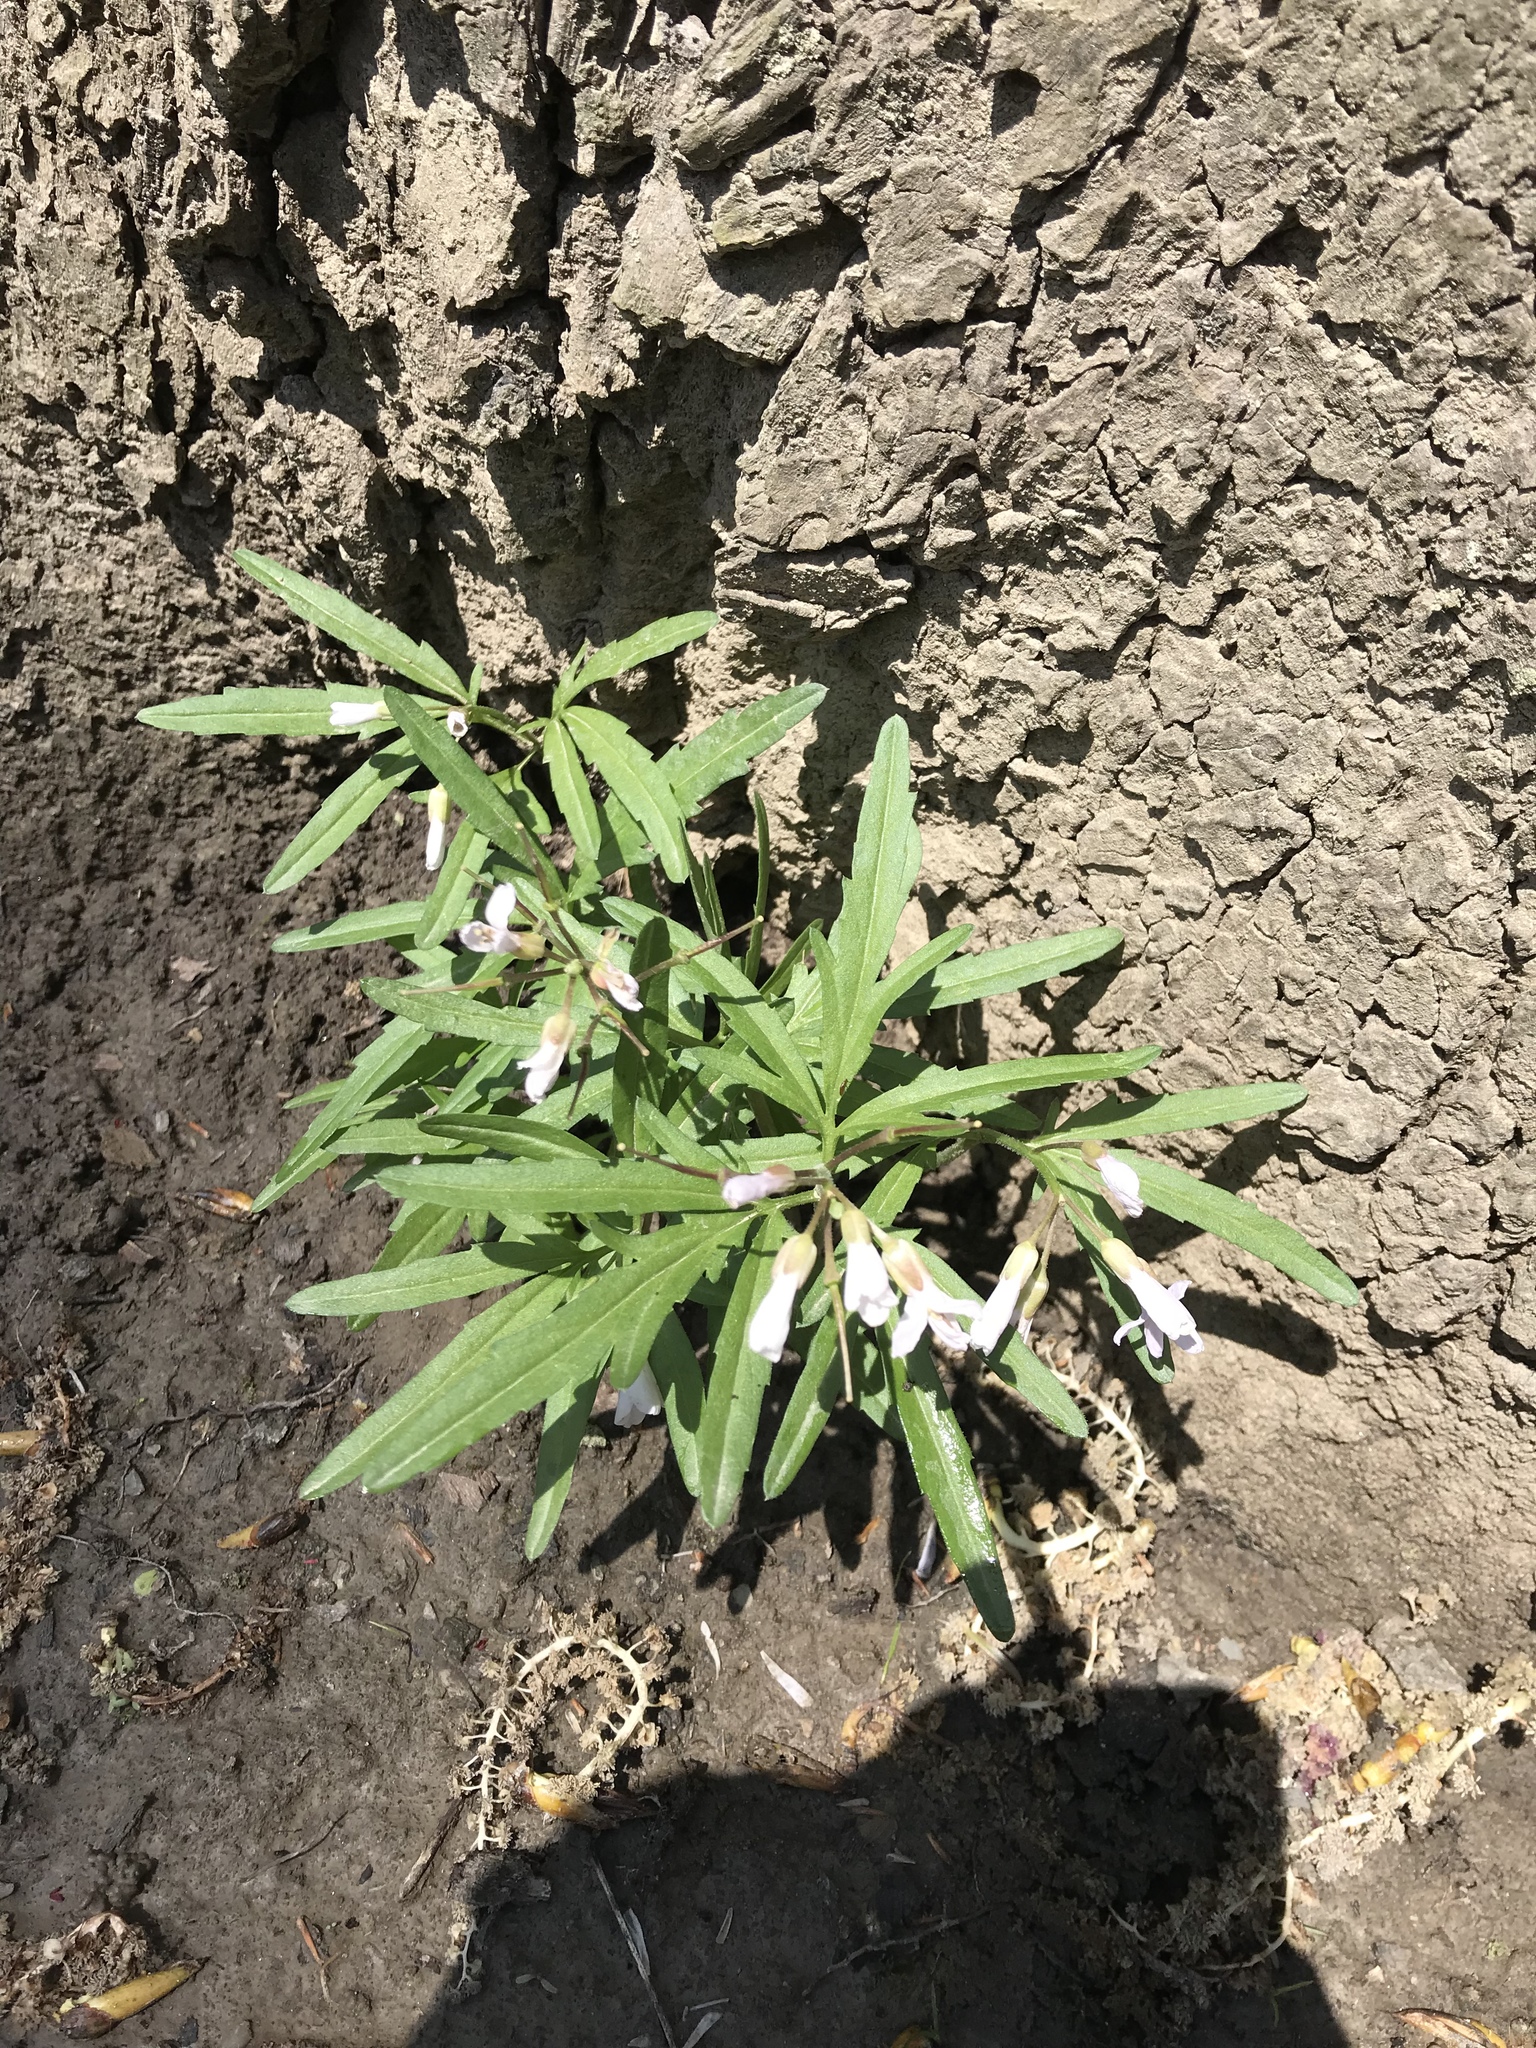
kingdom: Plantae
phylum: Tracheophyta
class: Magnoliopsida
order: Brassicales
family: Brassicaceae
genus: Cardamine
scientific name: Cardamine concatenata
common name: Cut-leaf toothcup
